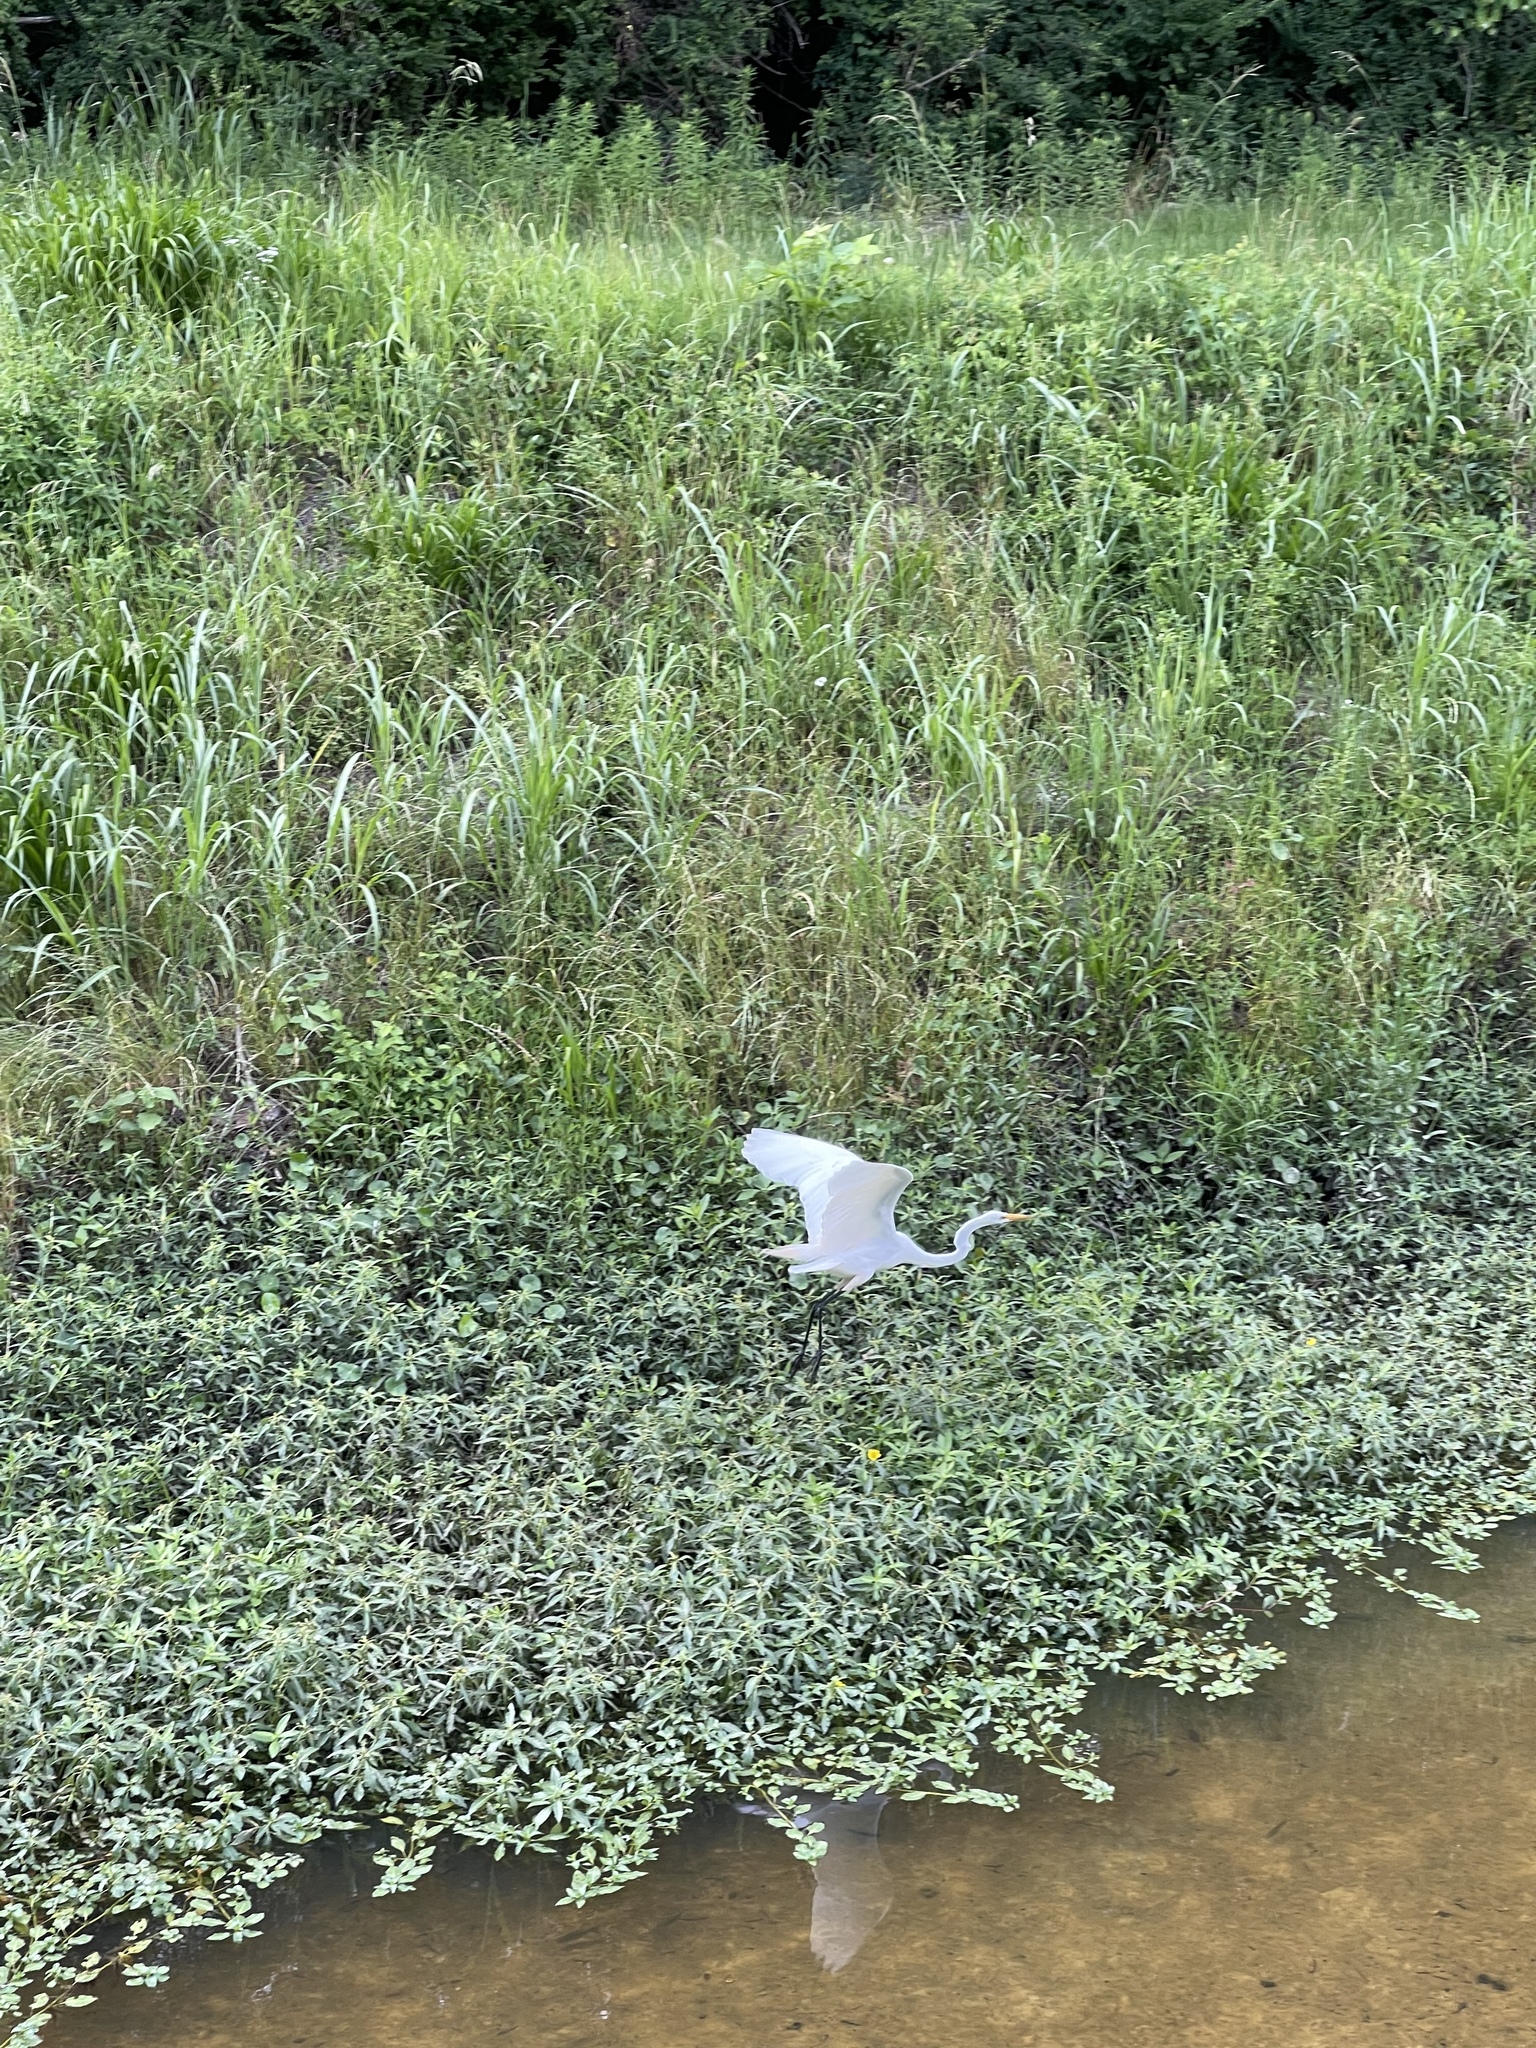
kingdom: Animalia
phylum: Chordata
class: Aves
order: Pelecaniformes
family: Ardeidae
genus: Ardea
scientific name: Ardea alba
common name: Great egret
